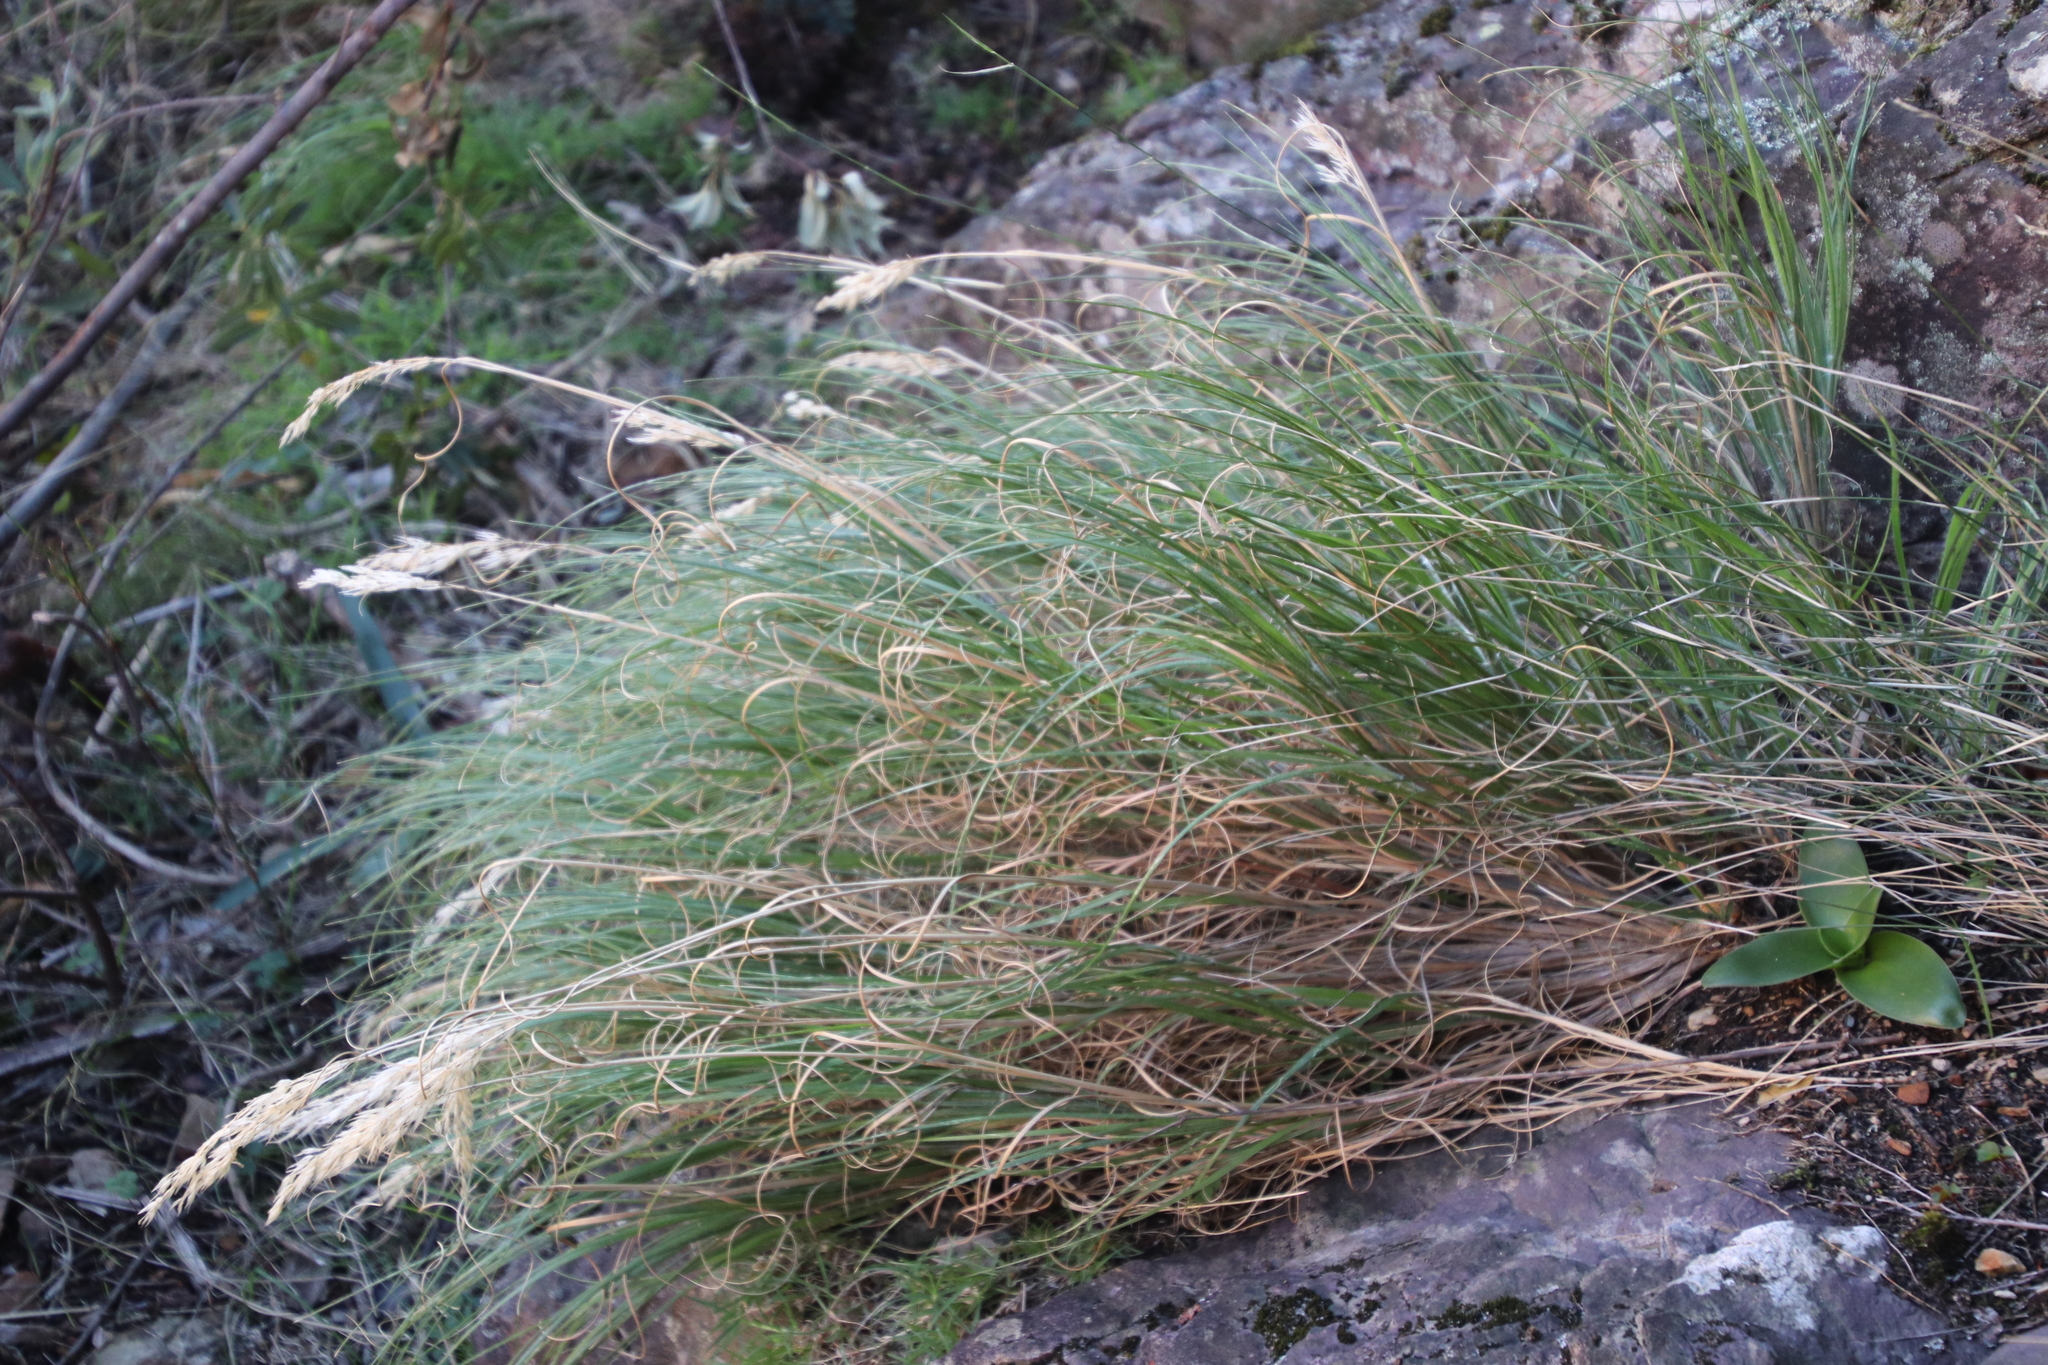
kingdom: Plantae
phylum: Tracheophyta
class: Liliopsida
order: Poales
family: Poaceae
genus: Pentameris
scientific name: Pentameris curvifolia
